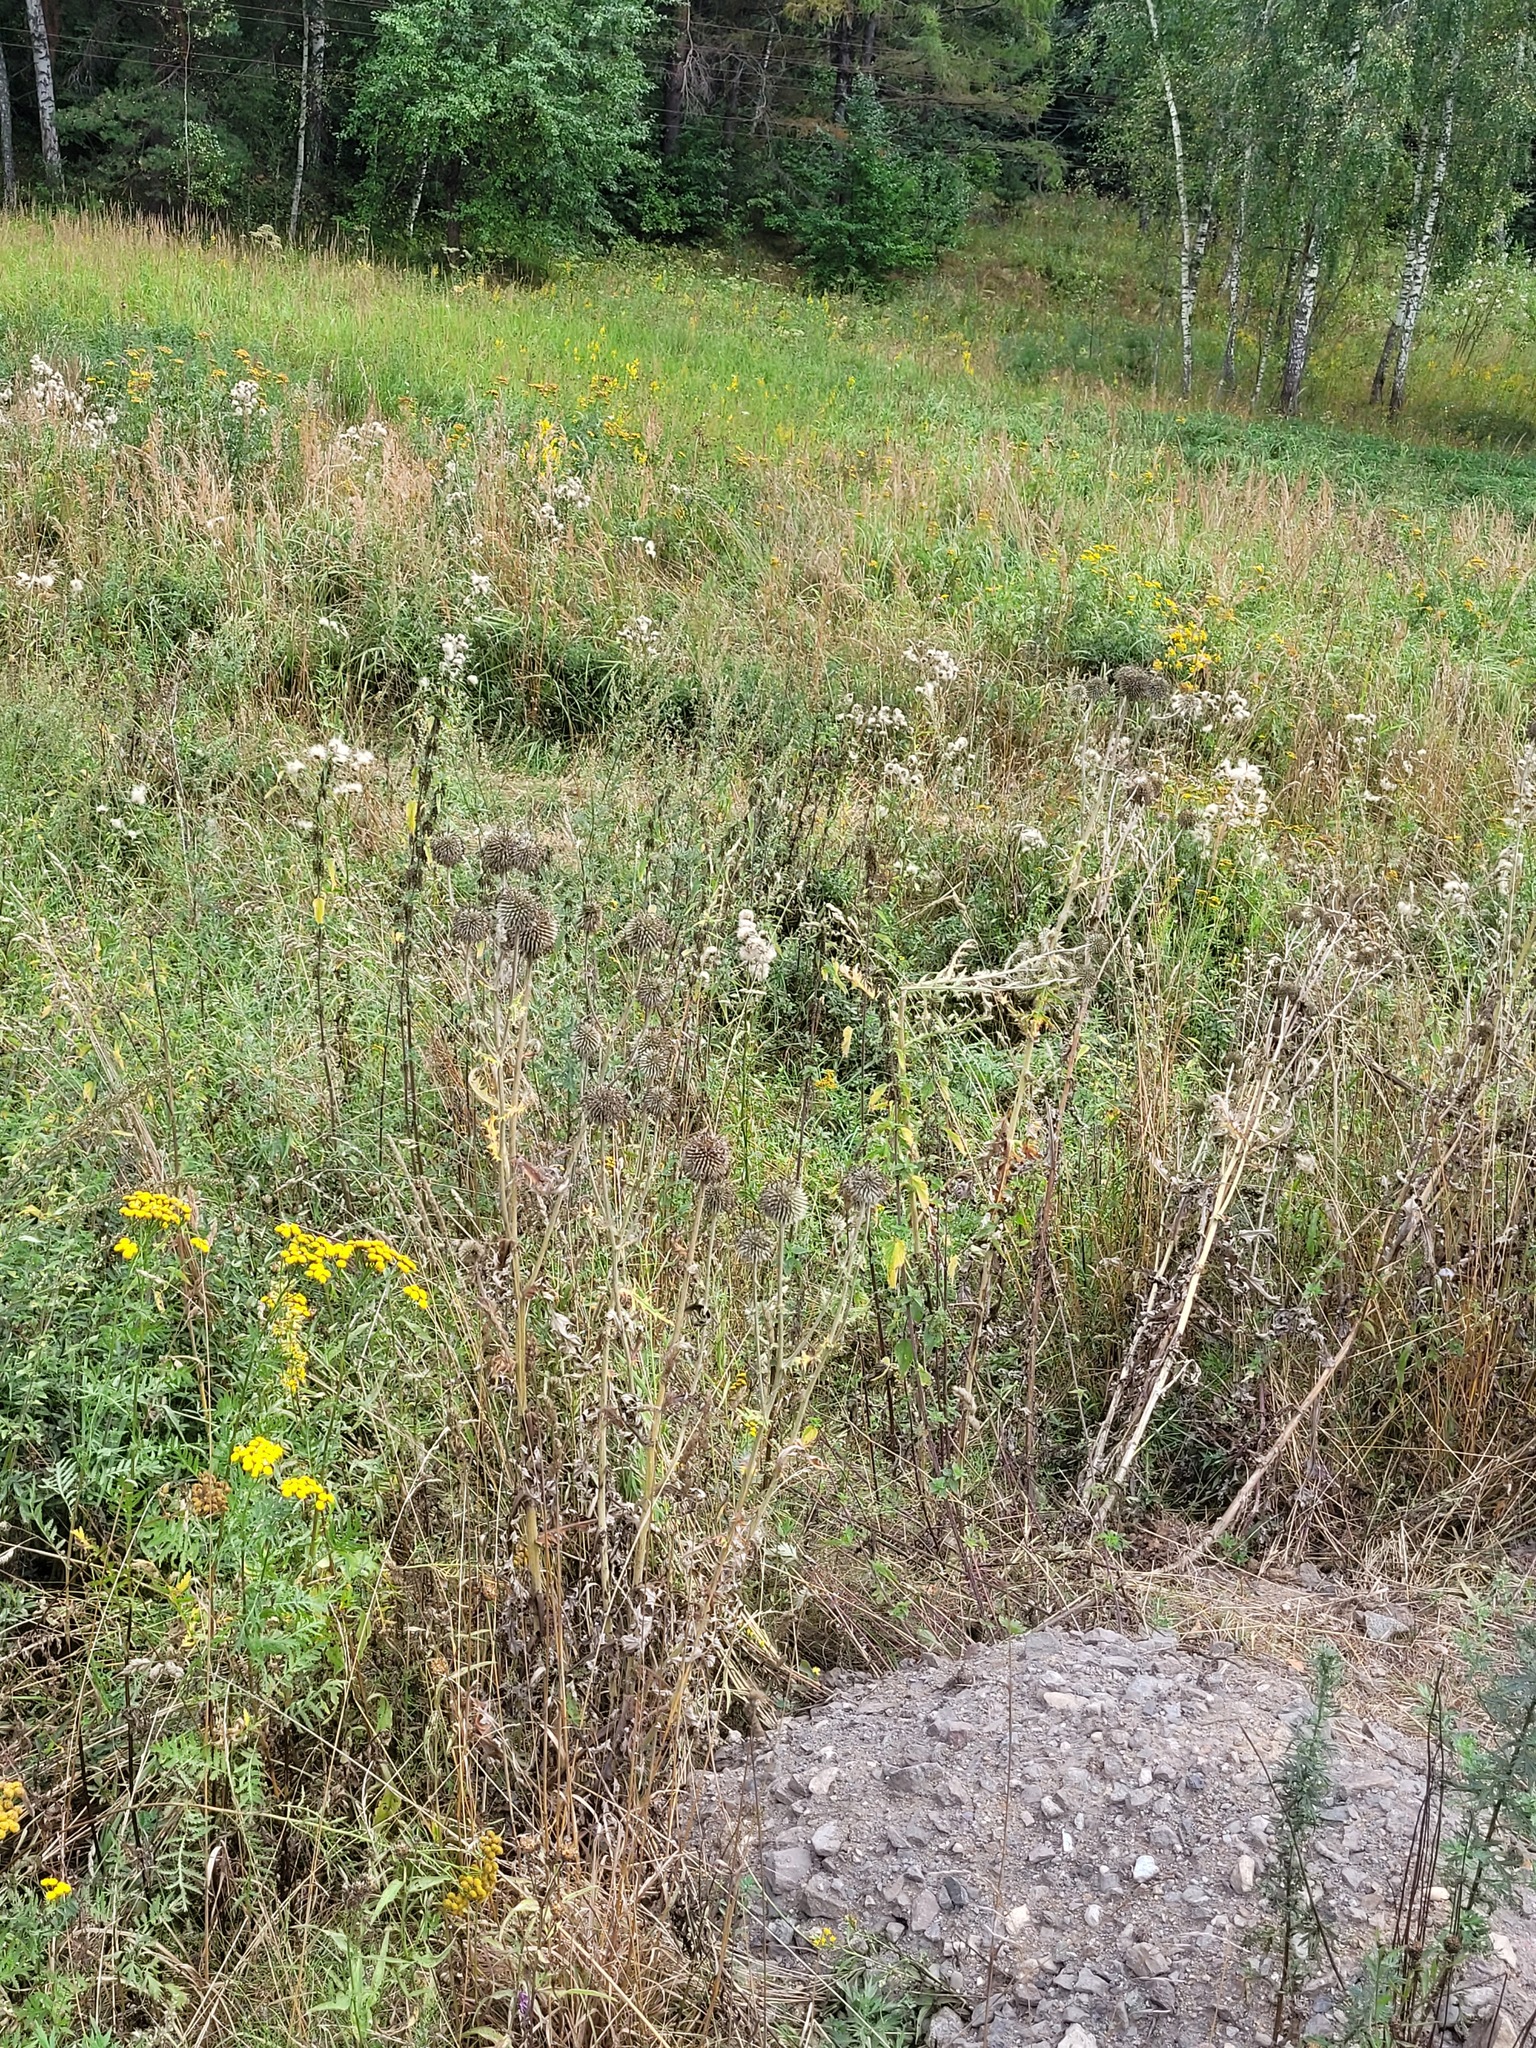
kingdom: Plantae
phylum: Tracheophyta
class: Magnoliopsida
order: Asterales
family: Asteraceae
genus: Echinops
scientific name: Echinops sphaerocephalus
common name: Glandular globe-thistle
